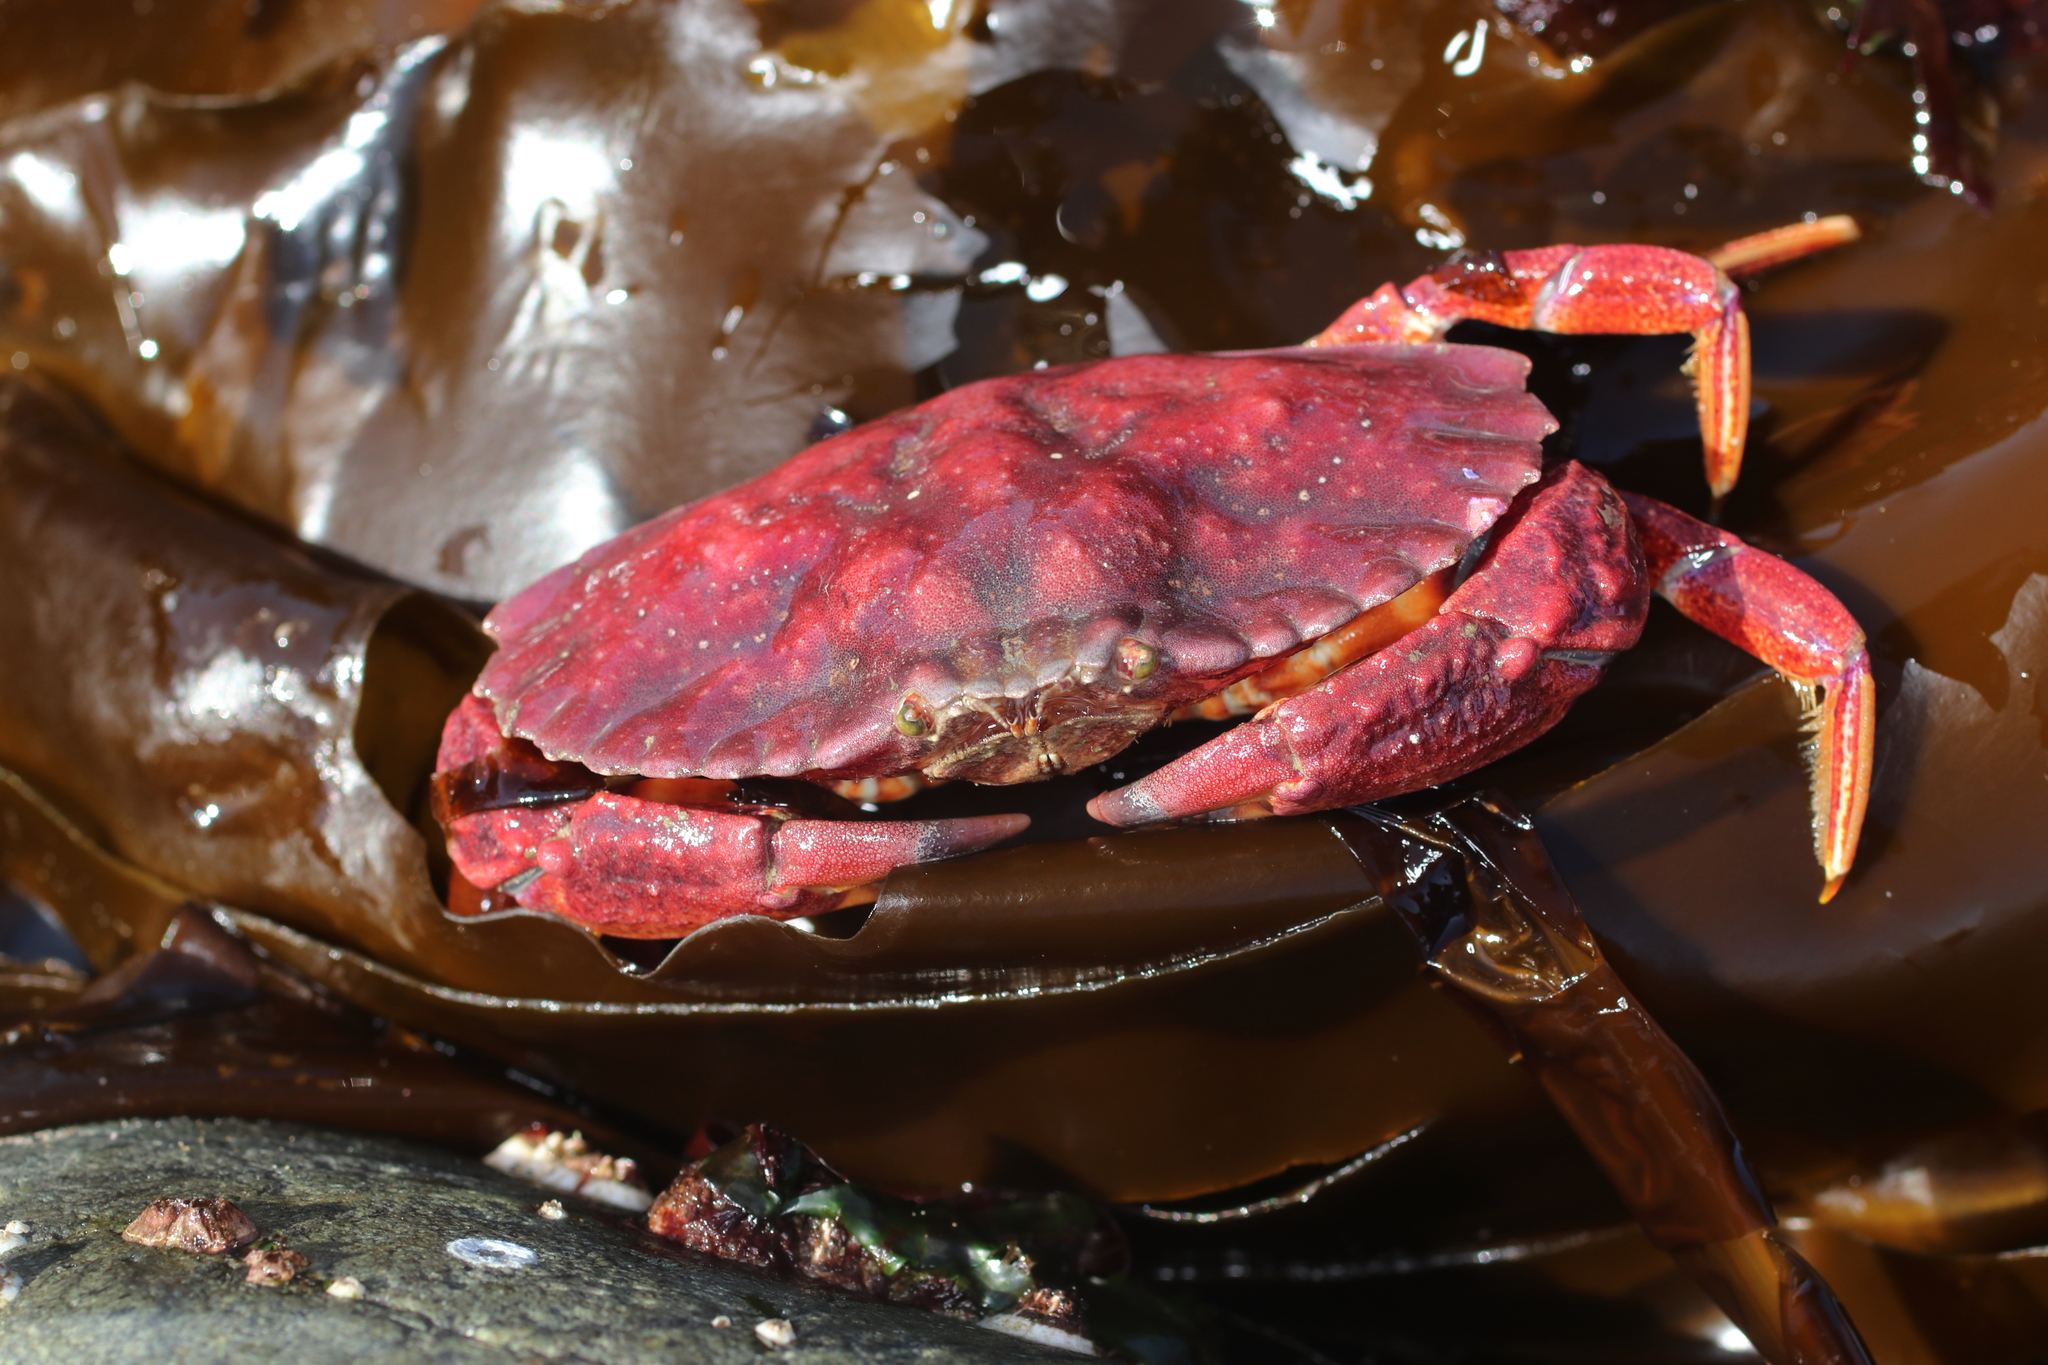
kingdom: Animalia
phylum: Arthropoda
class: Malacostraca
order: Decapoda
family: Cancridae
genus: Cancer
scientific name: Cancer productus
